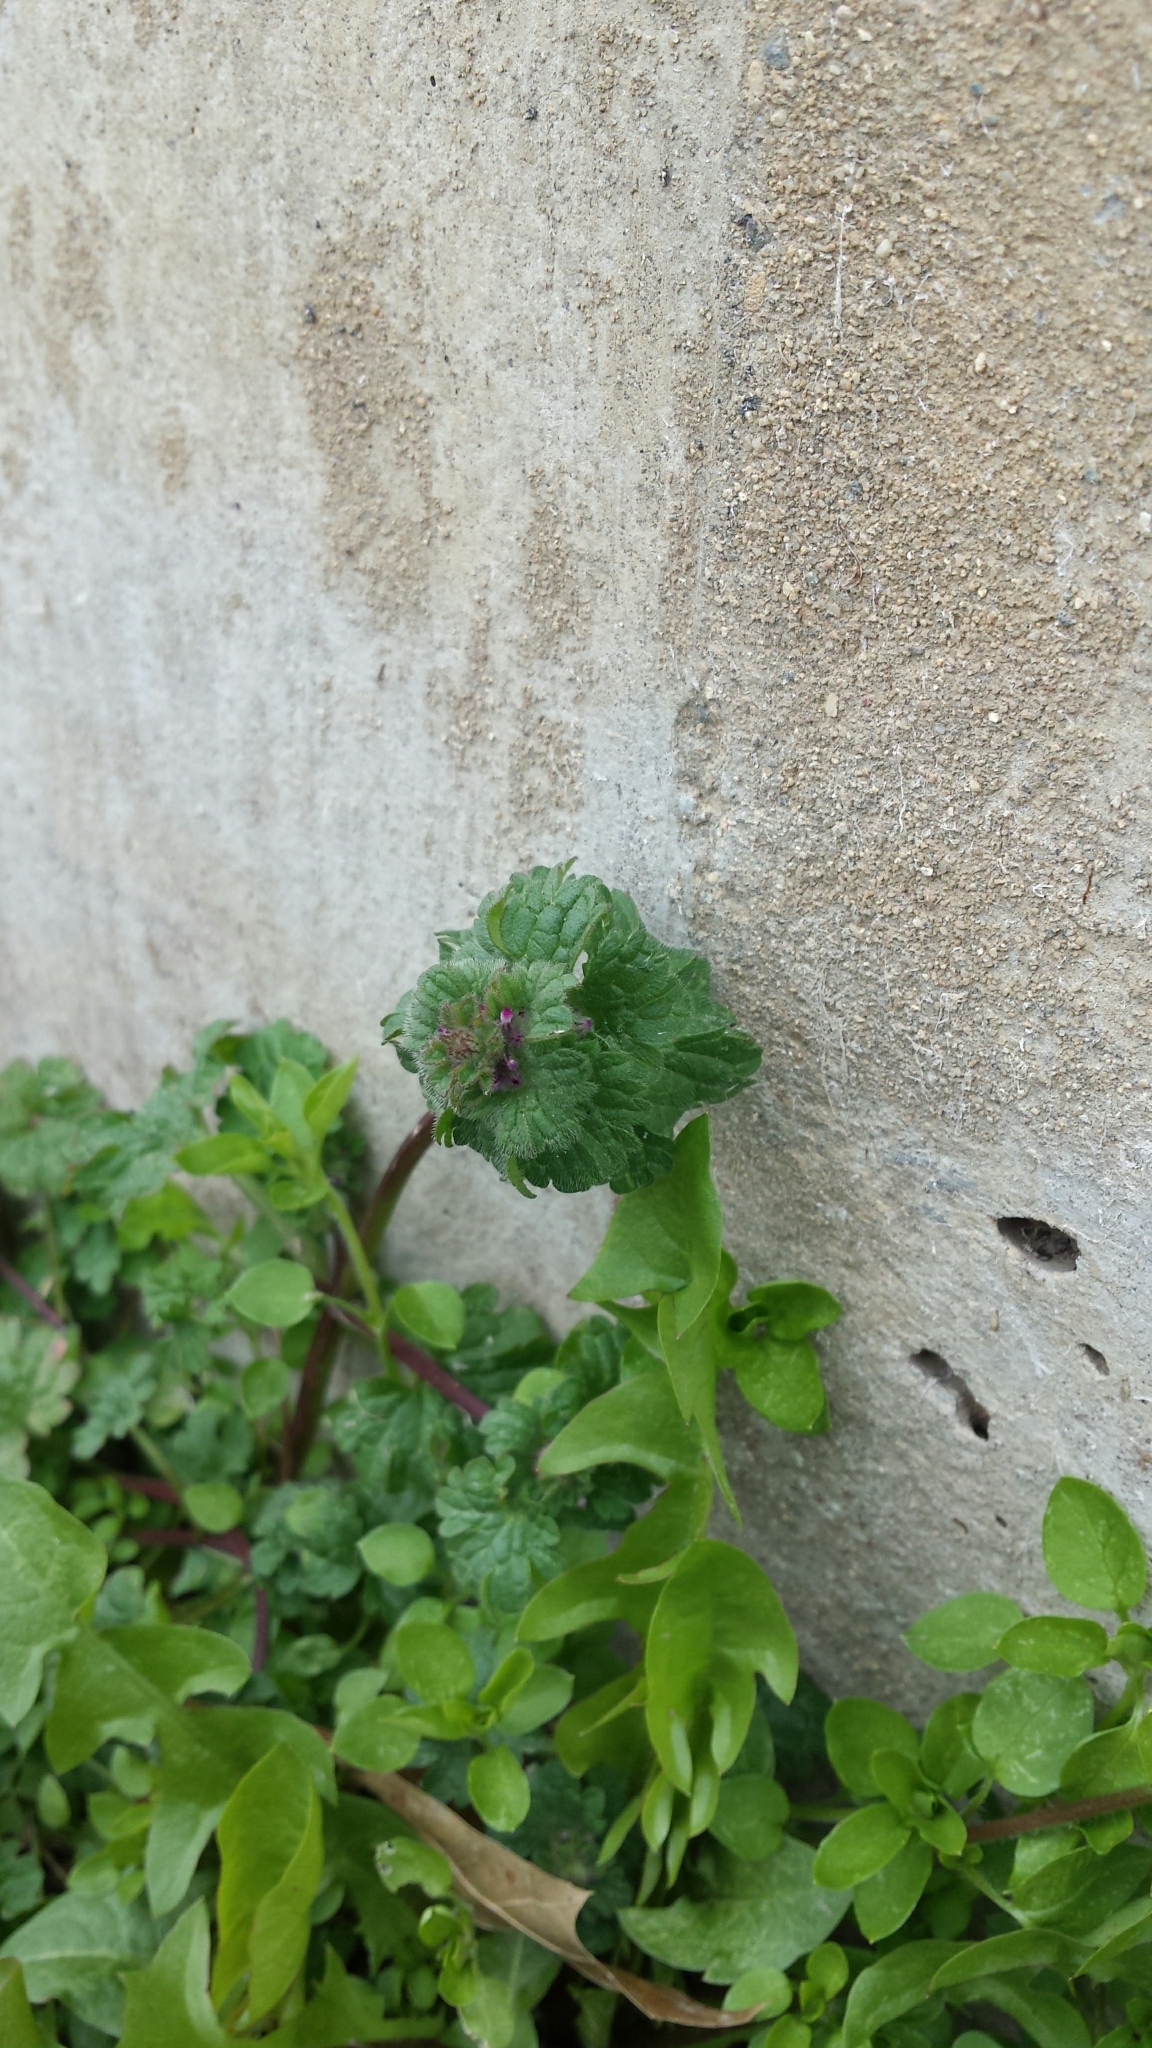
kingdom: Plantae
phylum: Tracheophyta
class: Magnoliopsida
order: Lamiales
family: Lamiaceae
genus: Lamium
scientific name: Lamium amplexicaule
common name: Henbit dead-nettle
